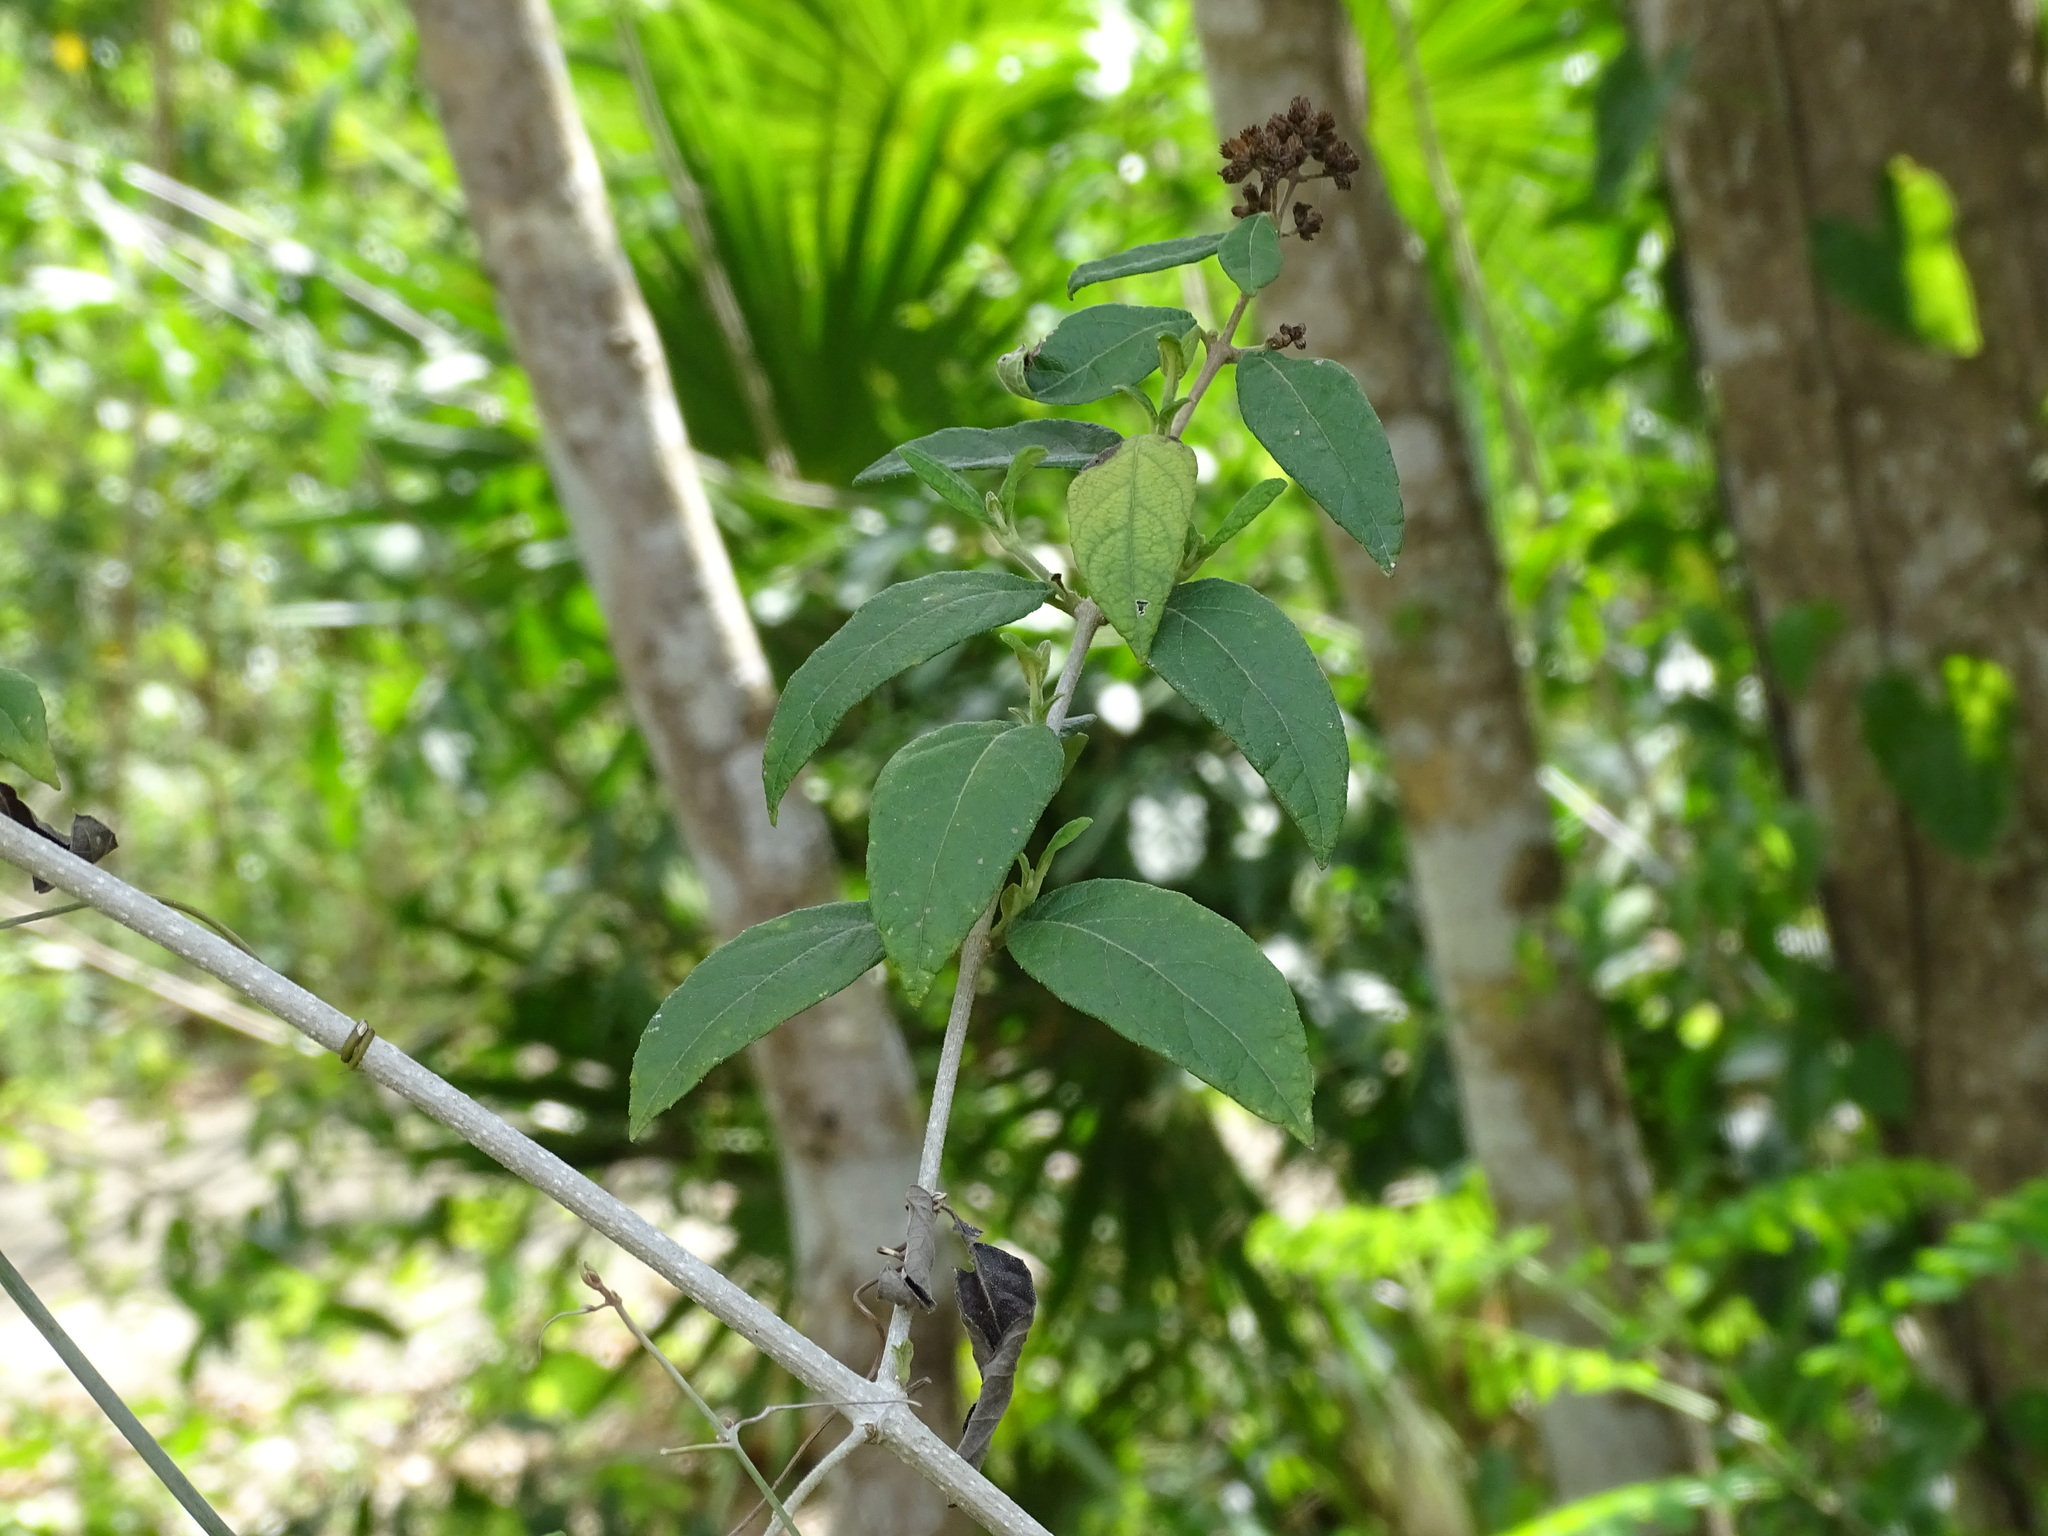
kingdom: Plantae
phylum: Tracheophyta
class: Magnoliopsida
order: Asterales
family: Asteraceae
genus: Otopappus
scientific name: Otopappus guatemalensis
